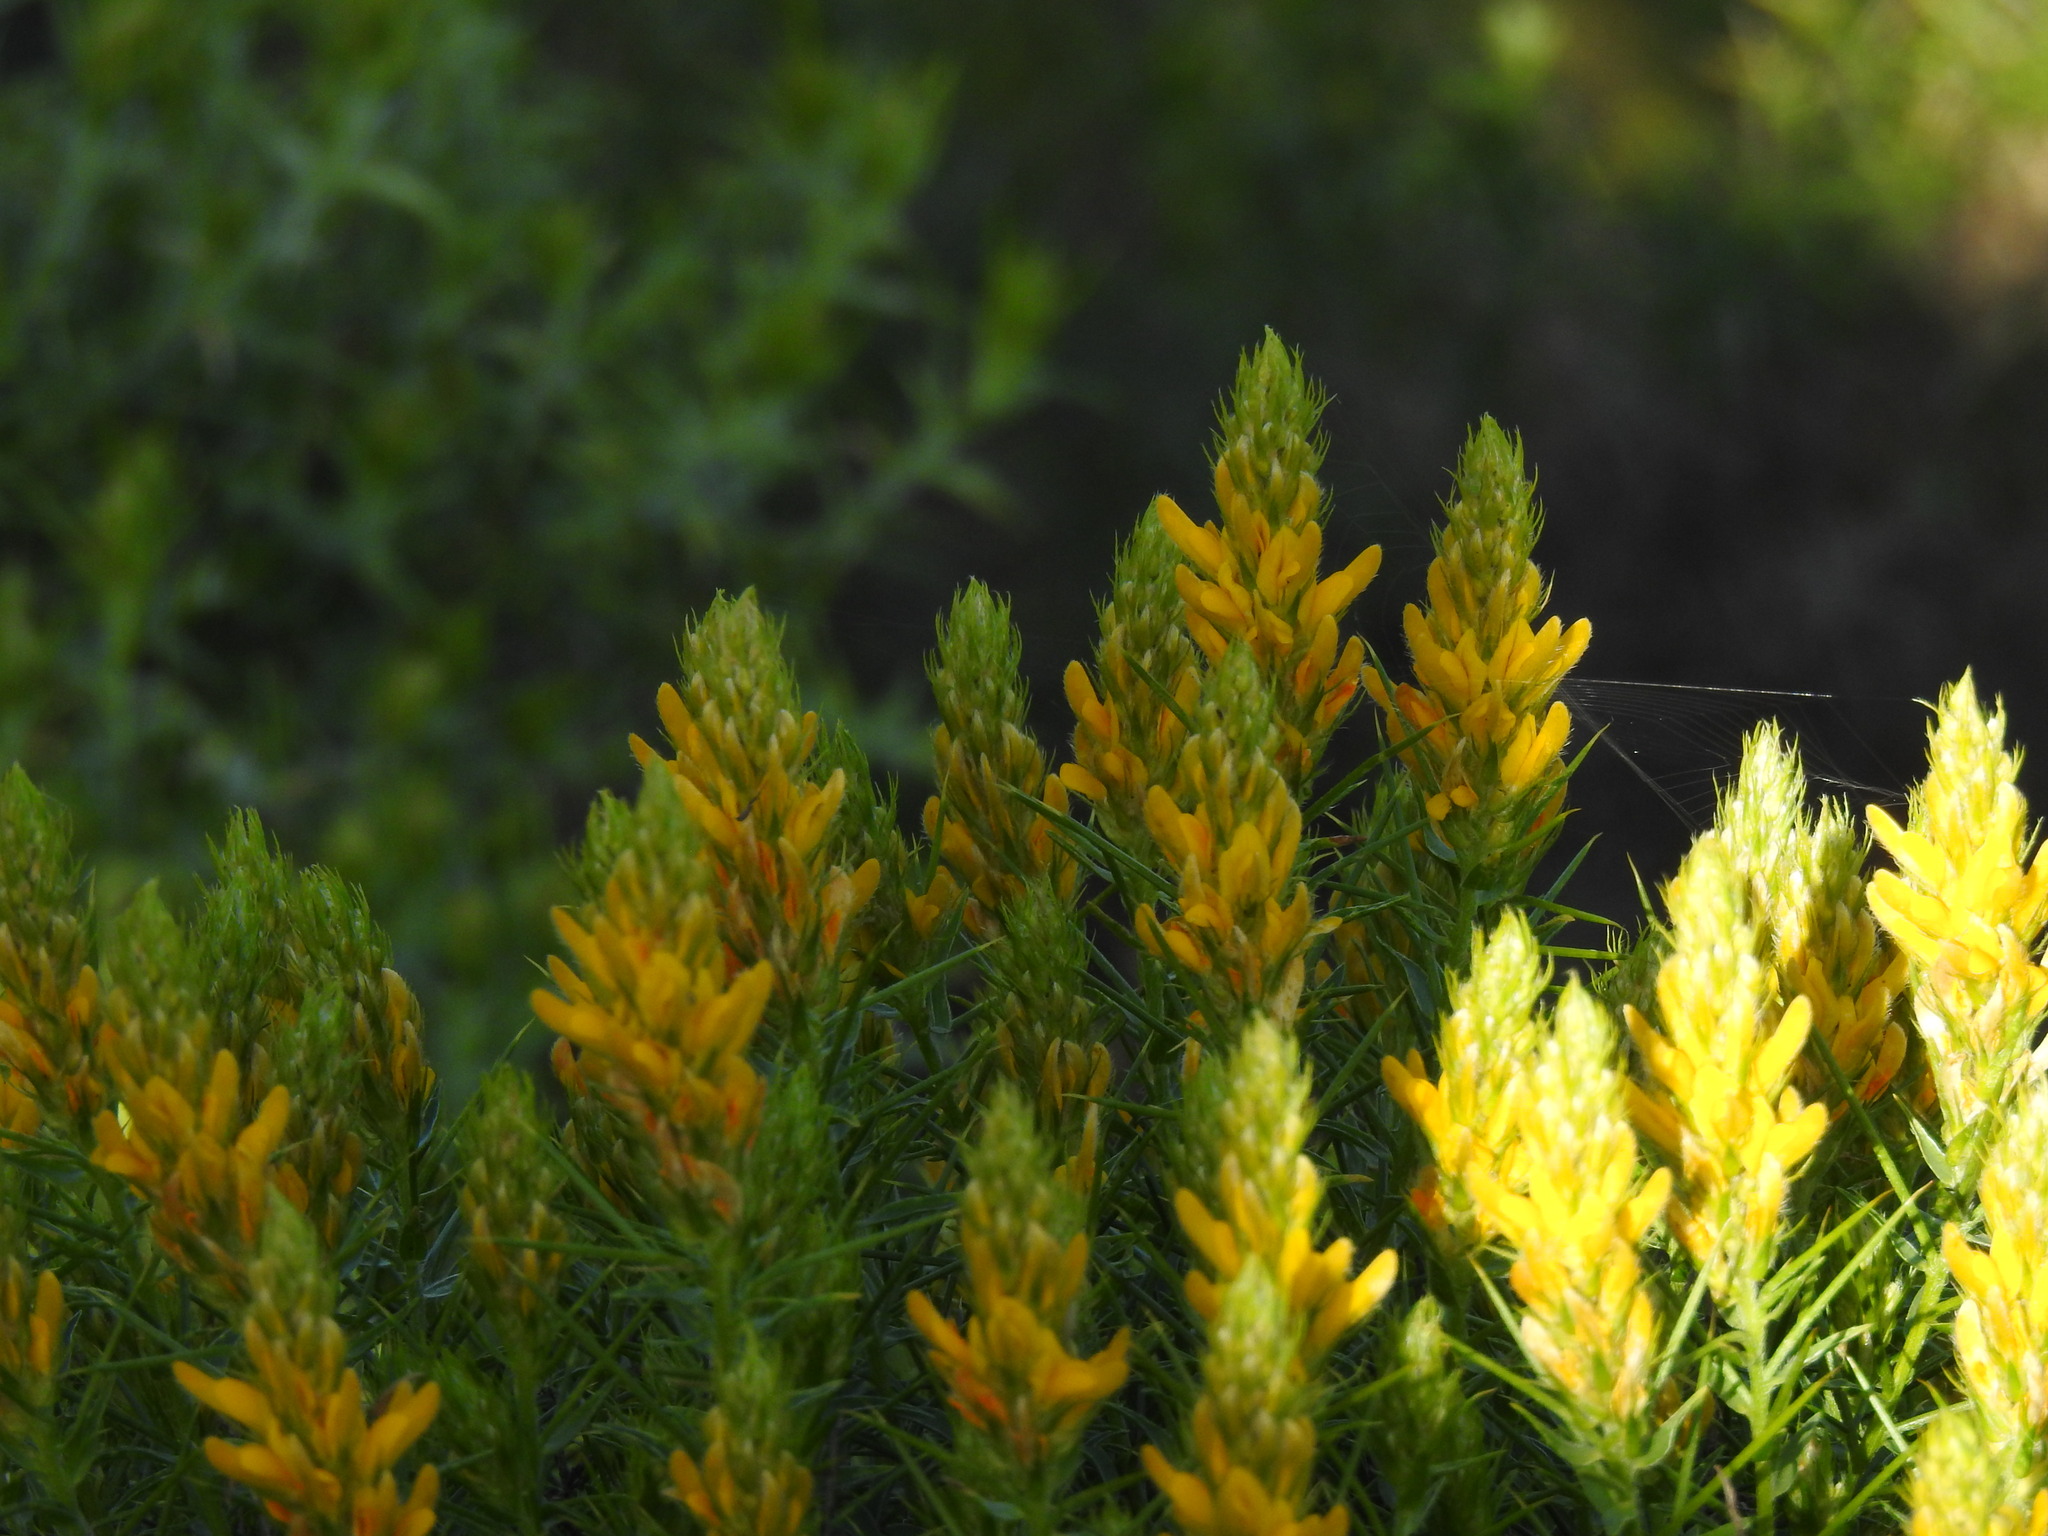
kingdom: Plantae
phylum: Tracheophyta
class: Magnoliopsida
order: Fabales
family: Fabaceae
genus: Genista
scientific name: Genista hirsuta
